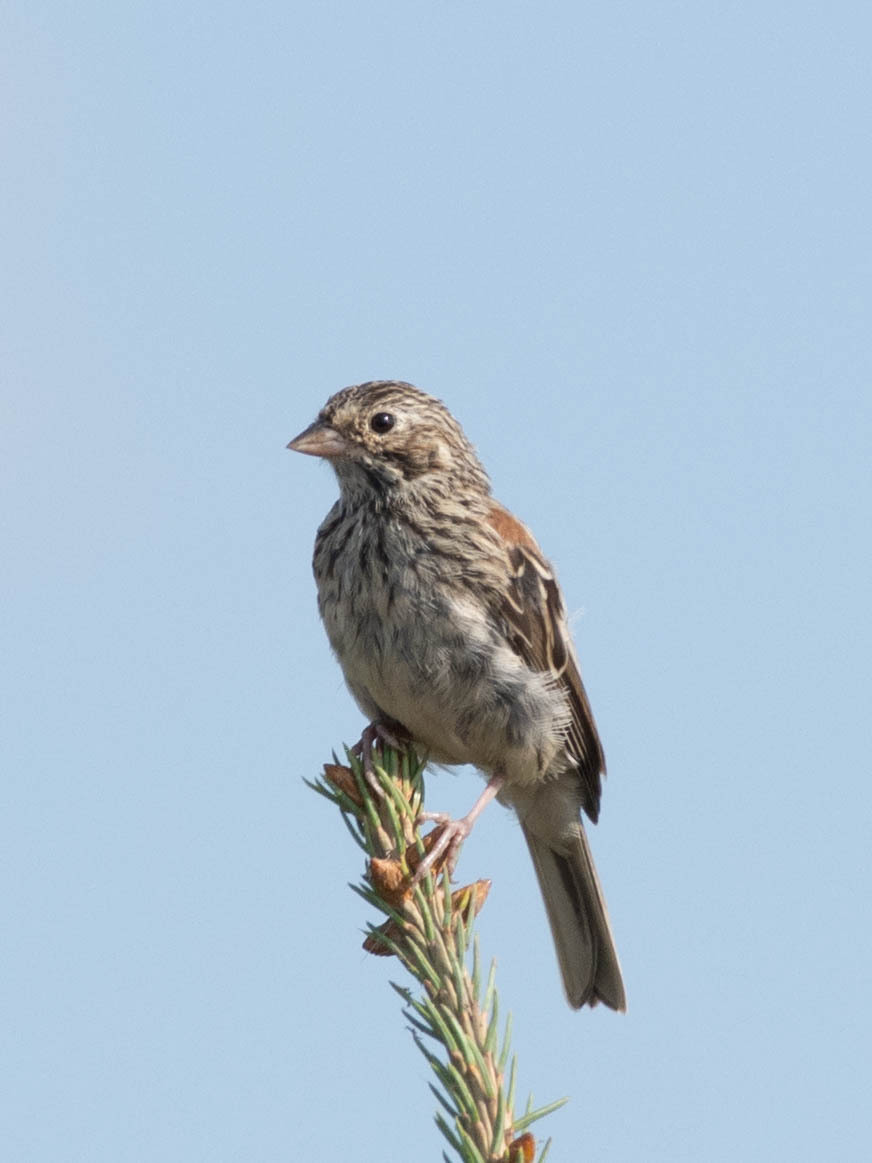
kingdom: Animalia
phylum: Chordata
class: Aves
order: Passeriformes
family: Passerellidae
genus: Pooecetes
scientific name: Pooecetes gramineus
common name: Vesper sparrow
